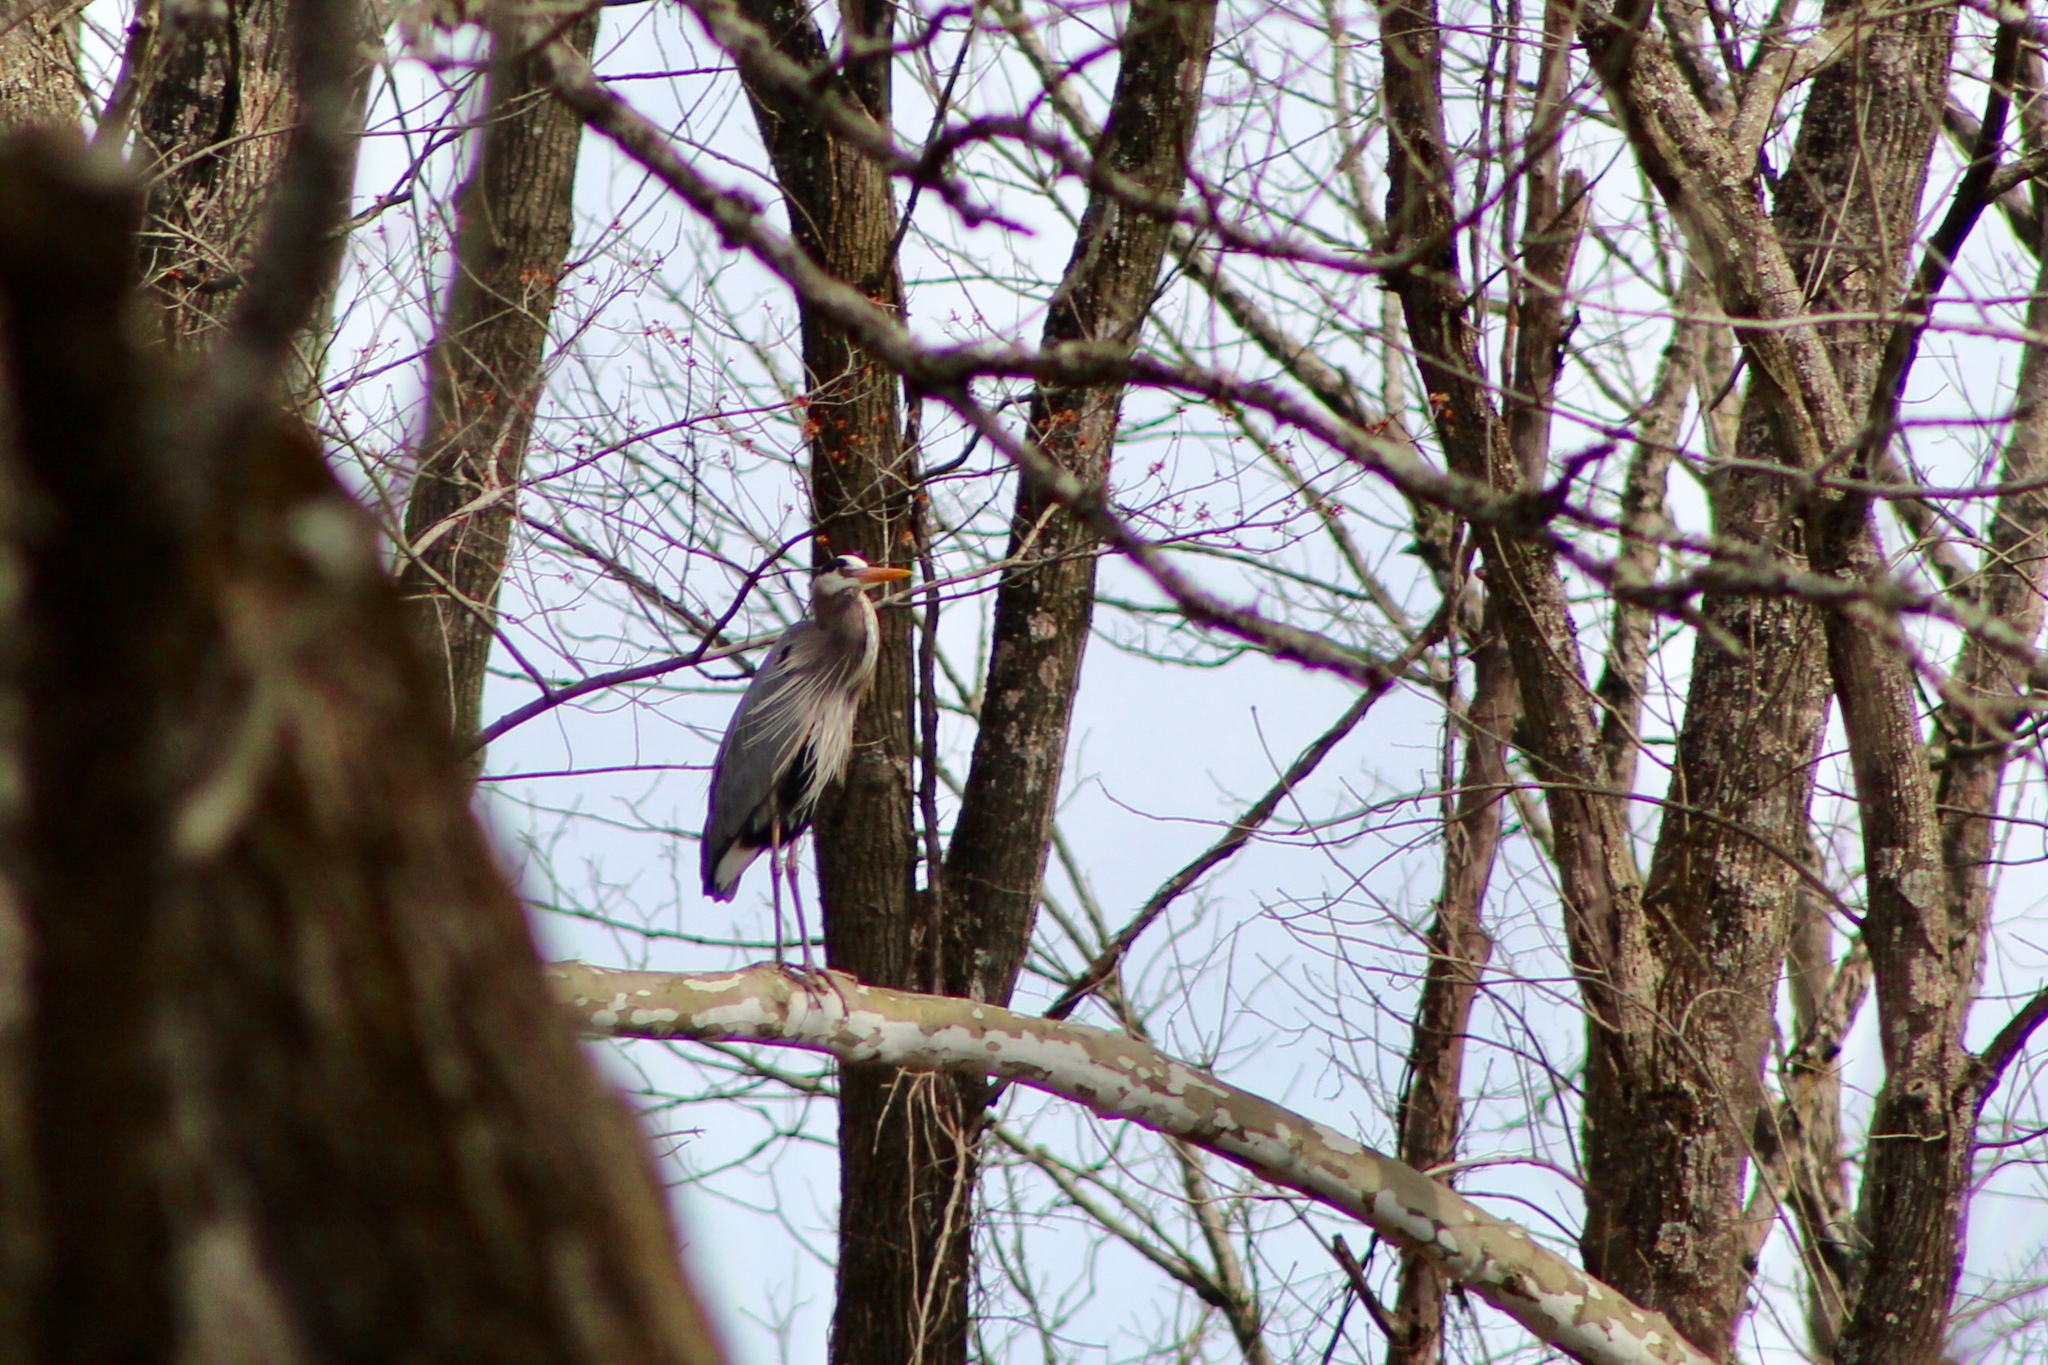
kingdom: Animalia
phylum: Chordata
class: Aves
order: Pelecaniformes
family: Ardeidae
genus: Ardea
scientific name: Ardea herodias
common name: Great blue heron
